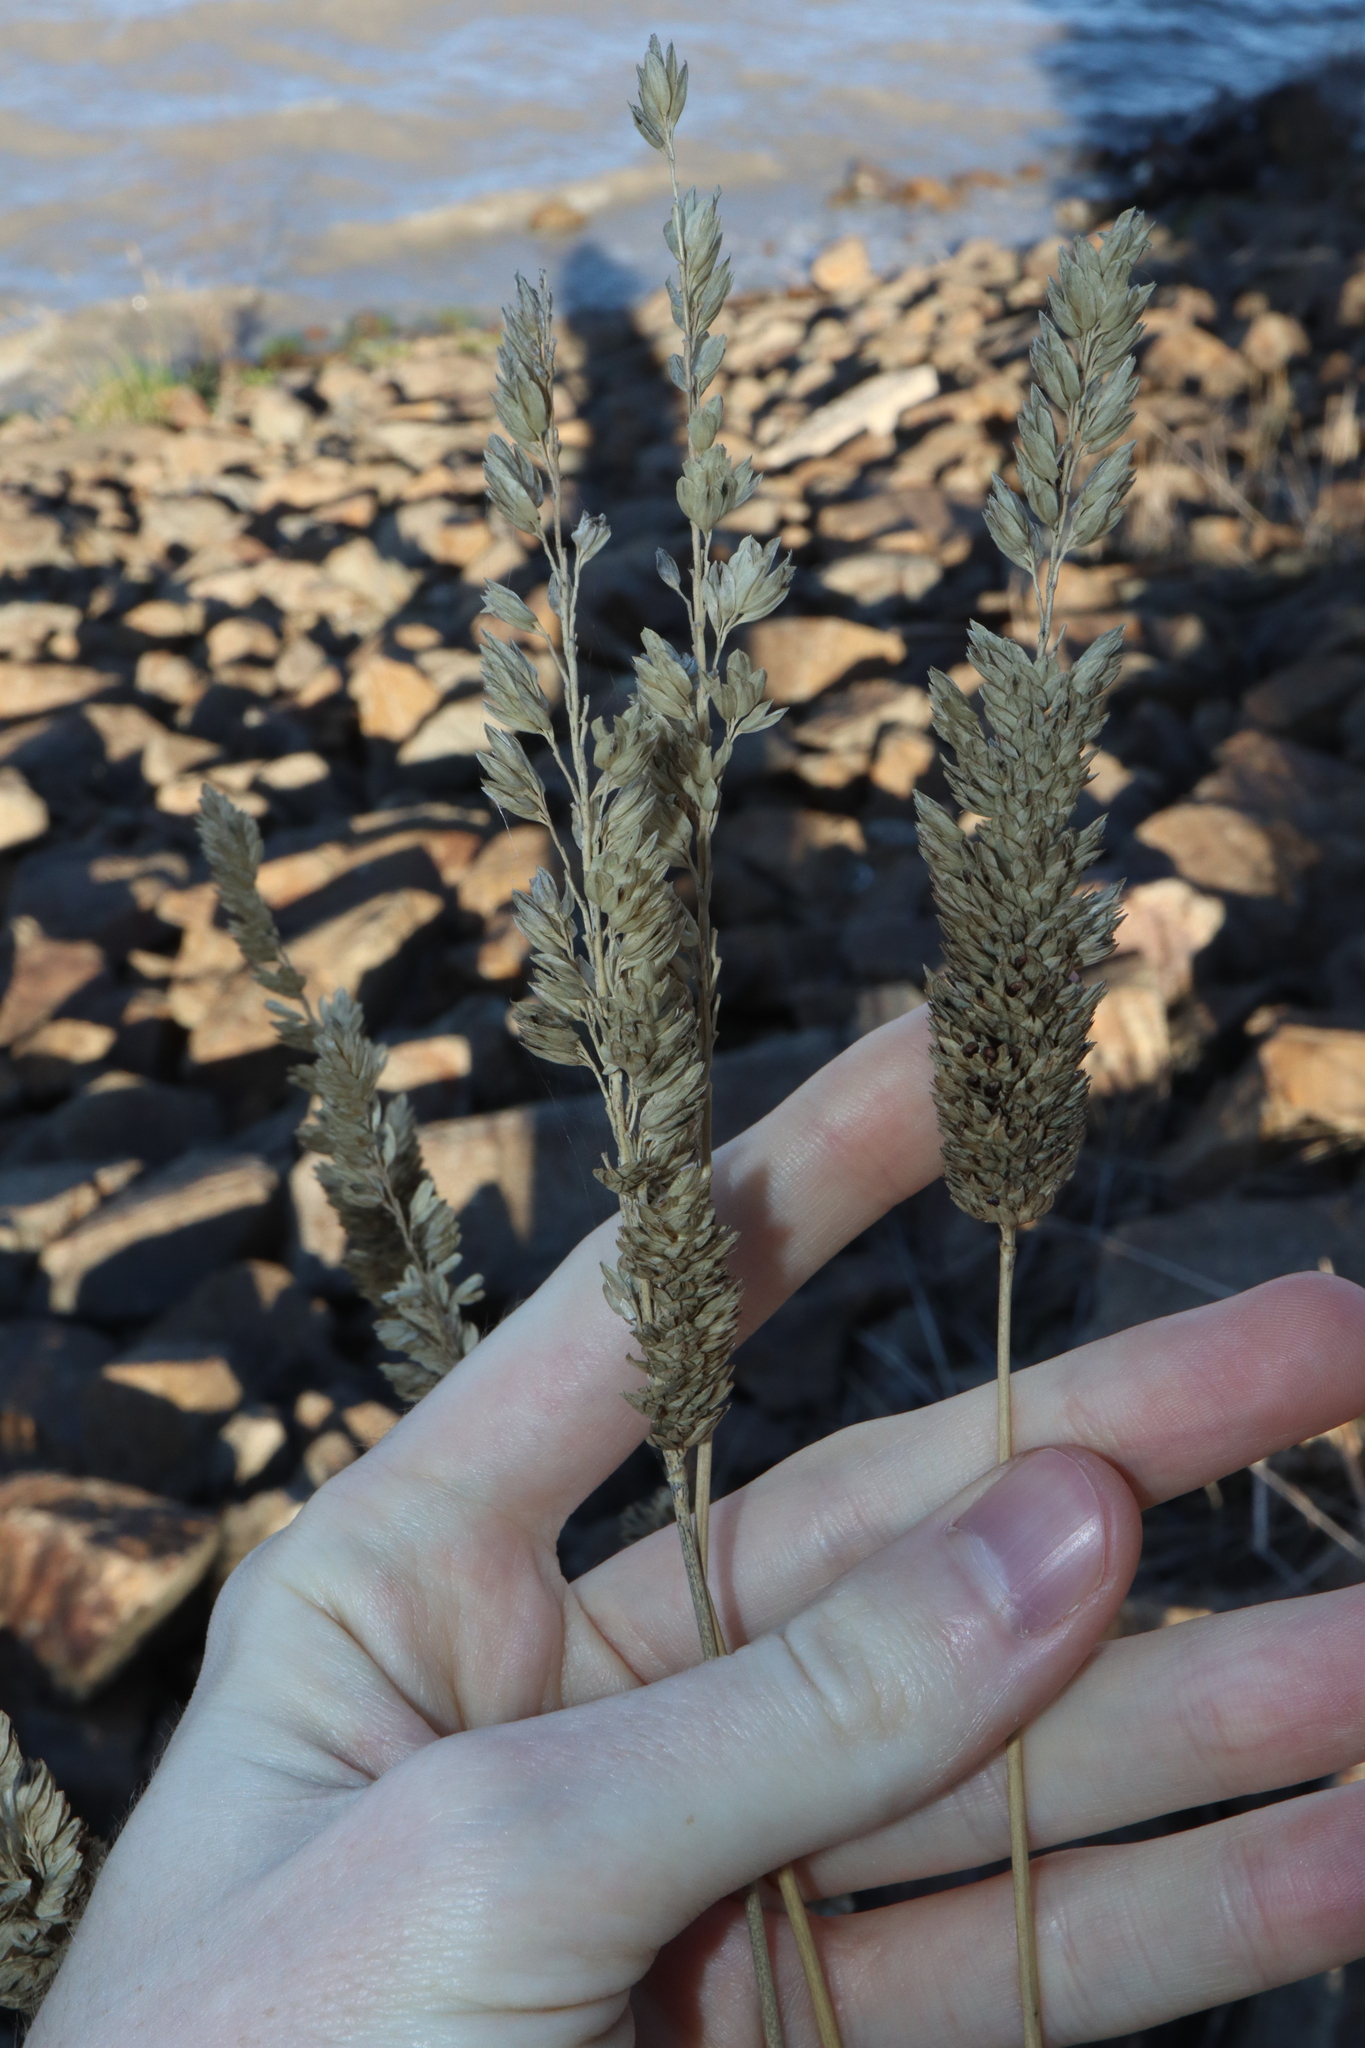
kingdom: Plantae
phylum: Tracheophyta
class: Liliopsida
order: Poales
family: Poaceae
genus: Phalaris
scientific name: Phalaris aquatica
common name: Bulbous canary-grass
